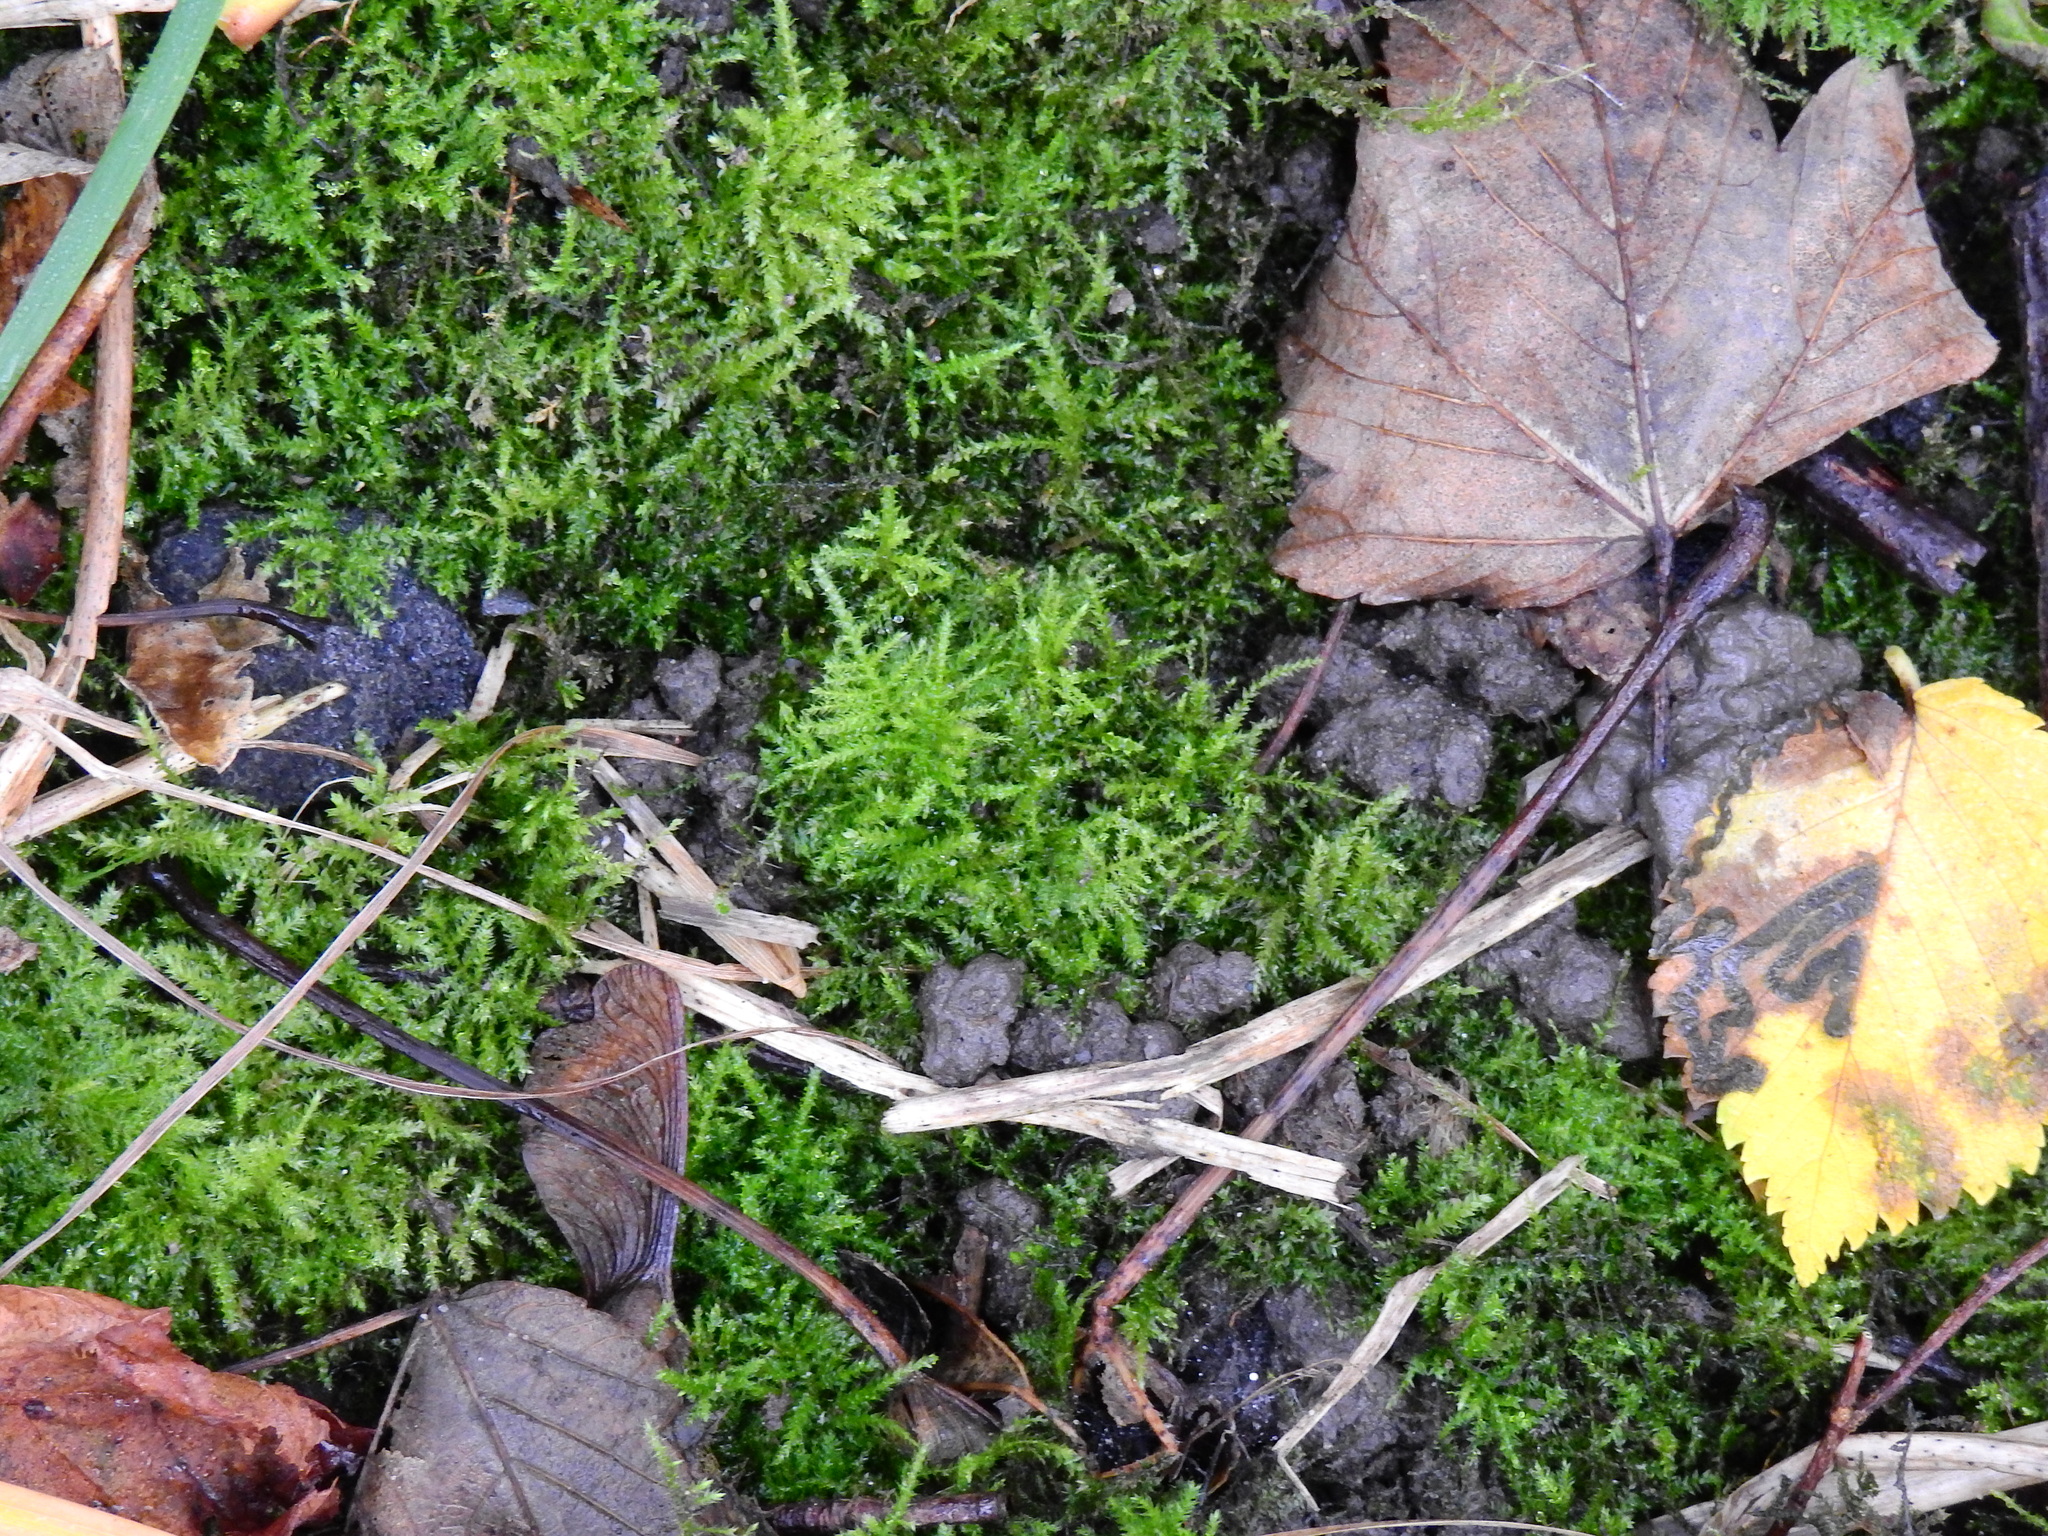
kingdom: Plantae
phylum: Bryophyta
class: Bryopsida
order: Hypnales
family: Brachytheciaceae
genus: Kindbergia
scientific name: Kindbergia praelonga
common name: Slender beaked moss
